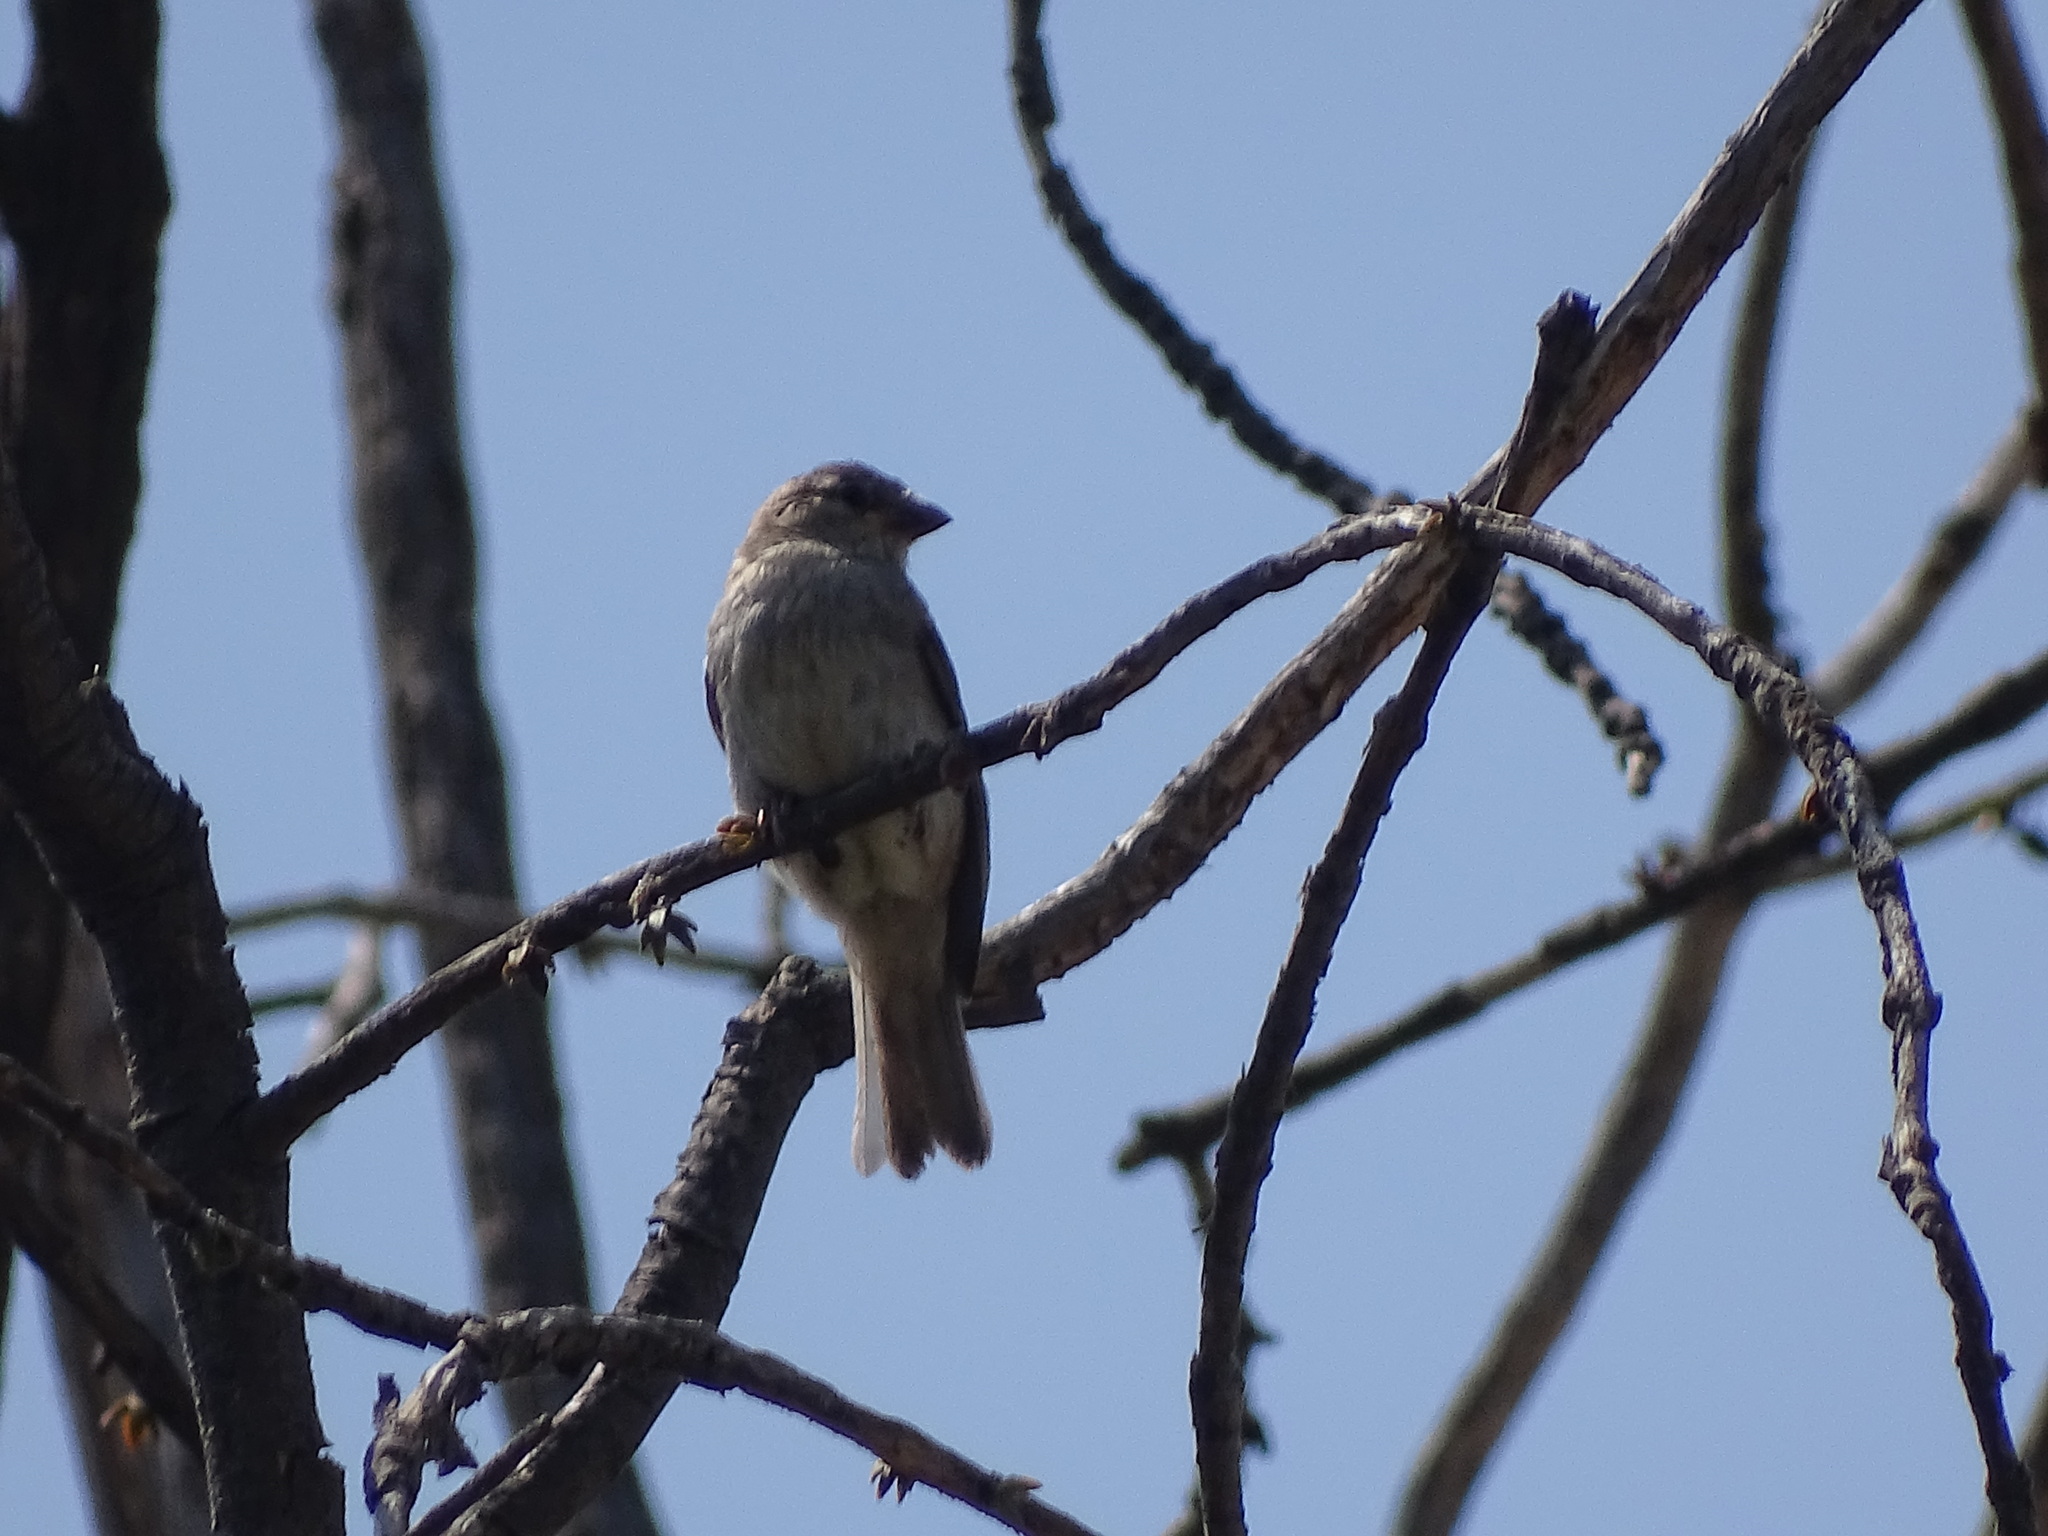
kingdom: Animalia
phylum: Chordata
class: Aves
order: Passeriformes
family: Passeridae
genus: Passer
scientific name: Passer domesticus
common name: House sparrow
